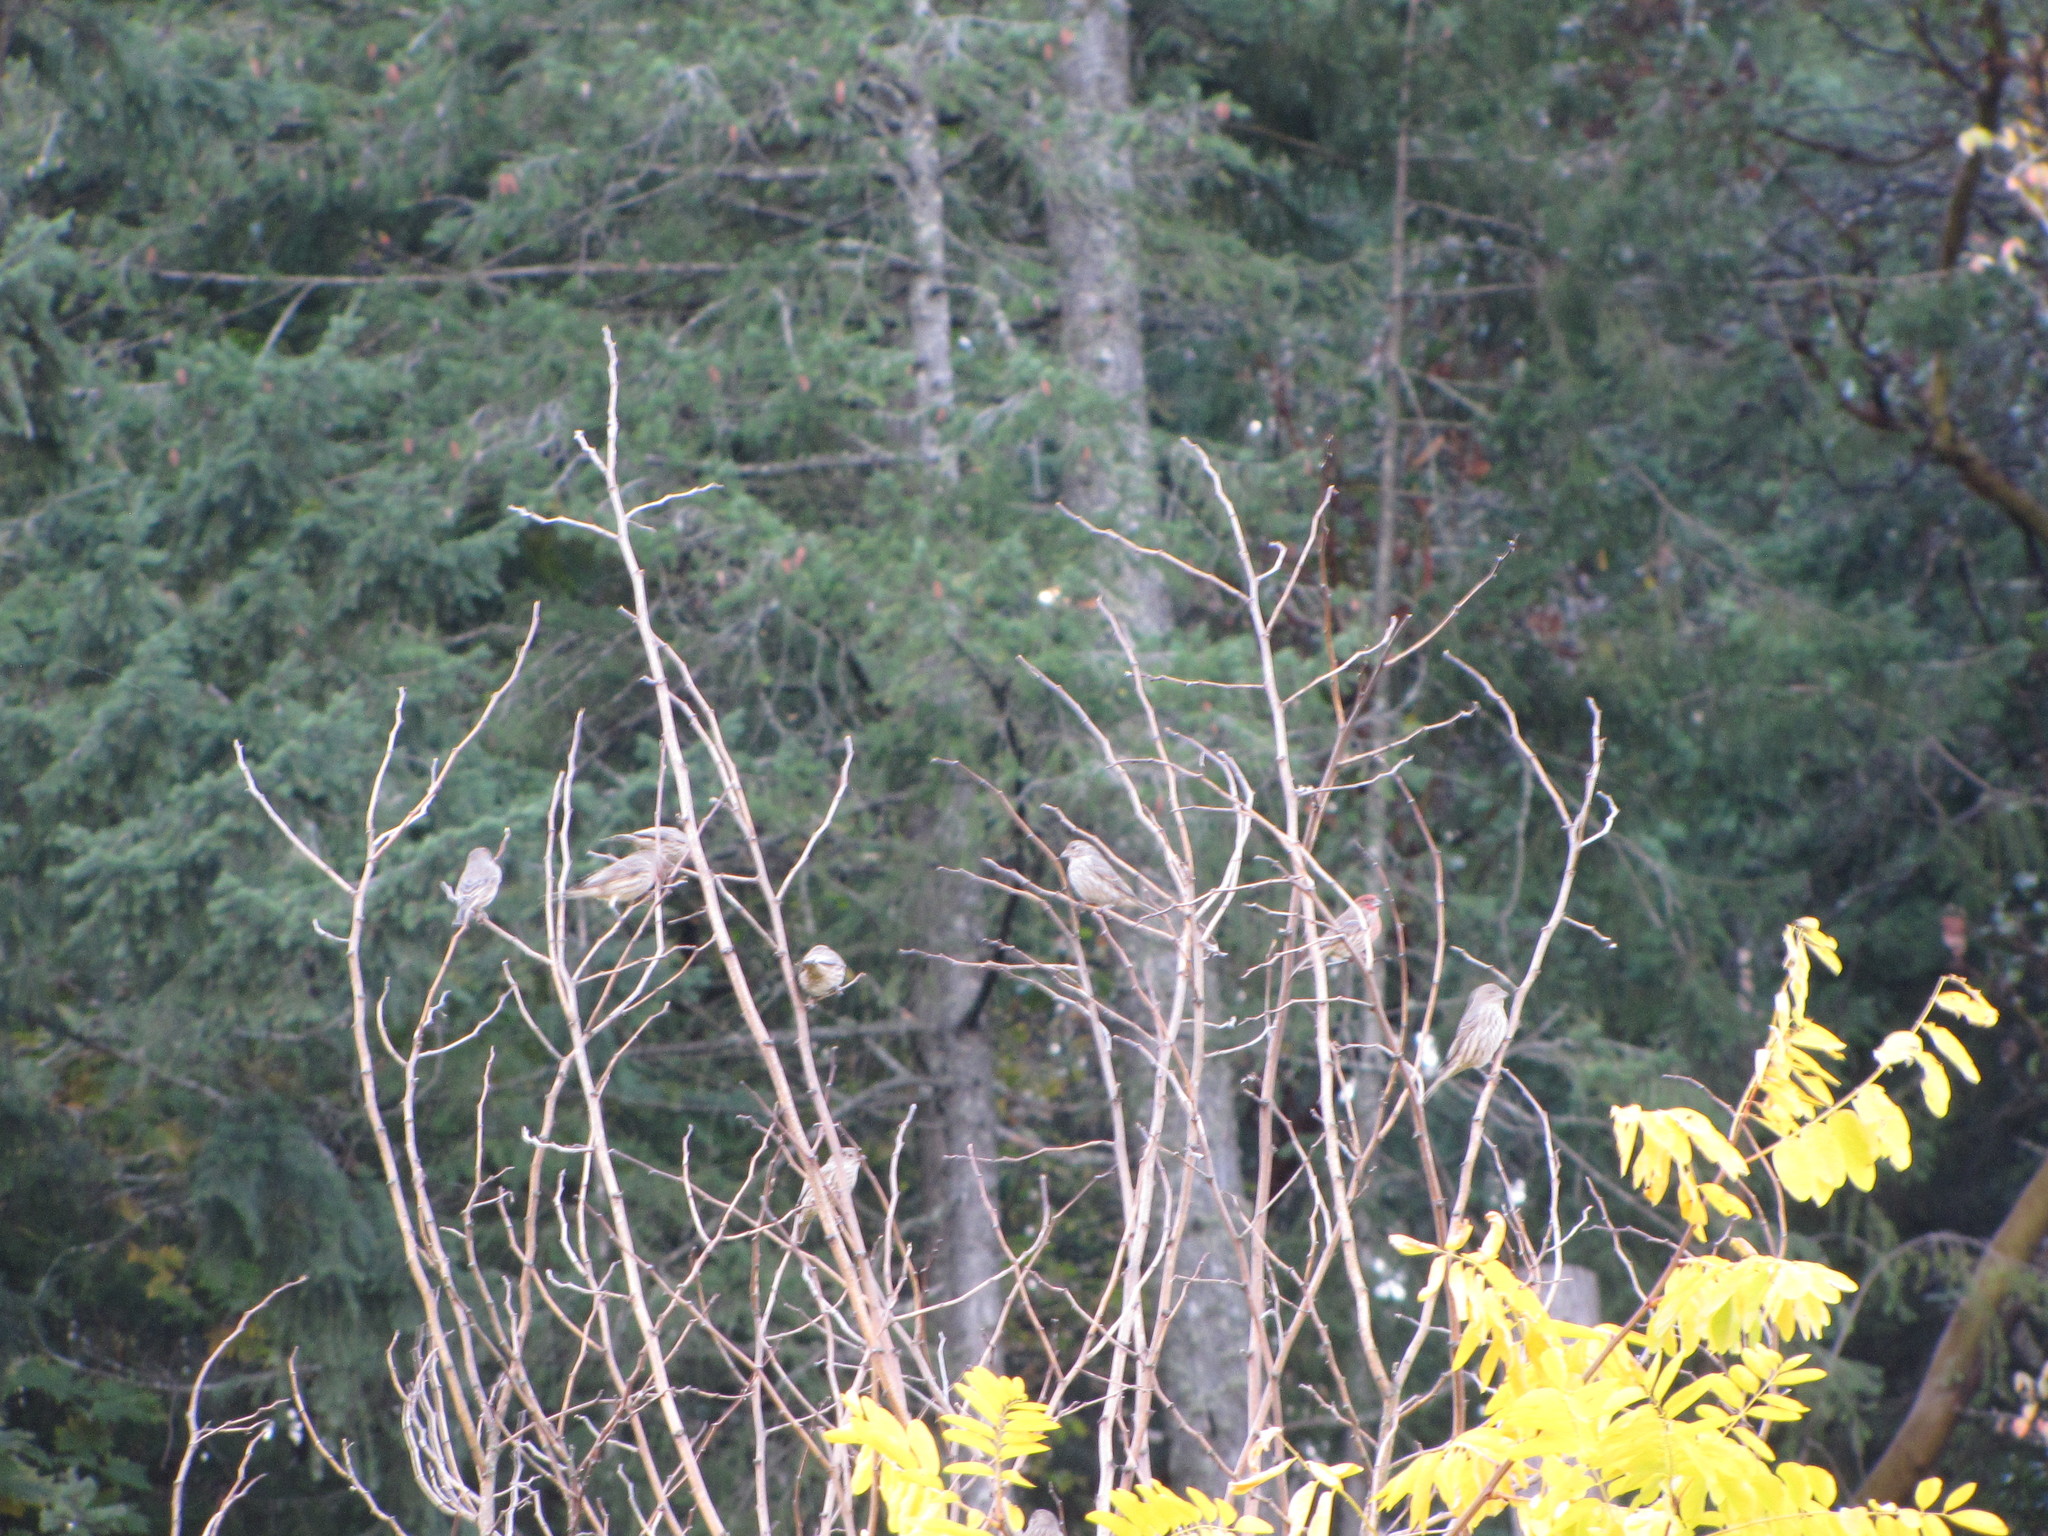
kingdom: Animalia
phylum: Chordata
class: Aves
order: Passeriformes
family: Fringillidae
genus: Haemorhous
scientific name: Haemorhous mexicanus
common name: House finch
